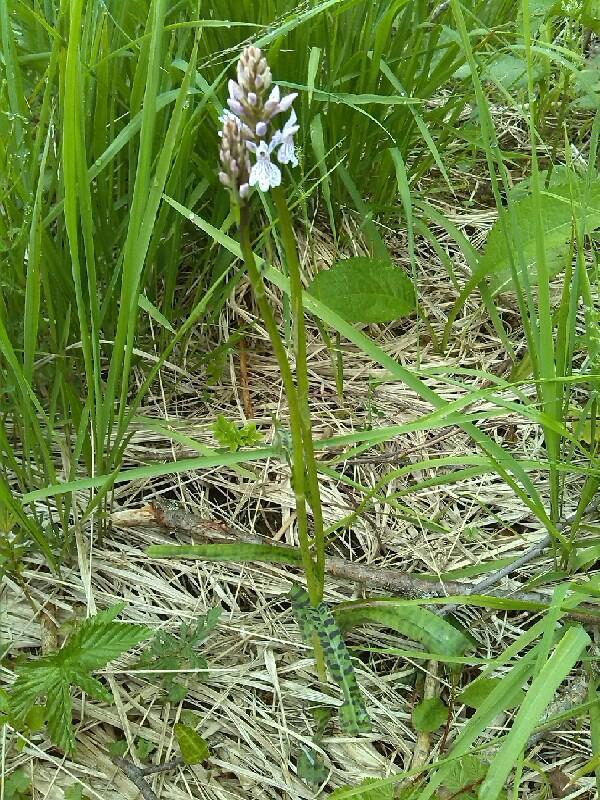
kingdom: Plantae
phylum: Tracheophyta
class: Liliopsida
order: Asparagales
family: Orchidaceae
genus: Dactylorhiza
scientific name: Dactylorhiza maculata
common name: Heath spotted-orchid
